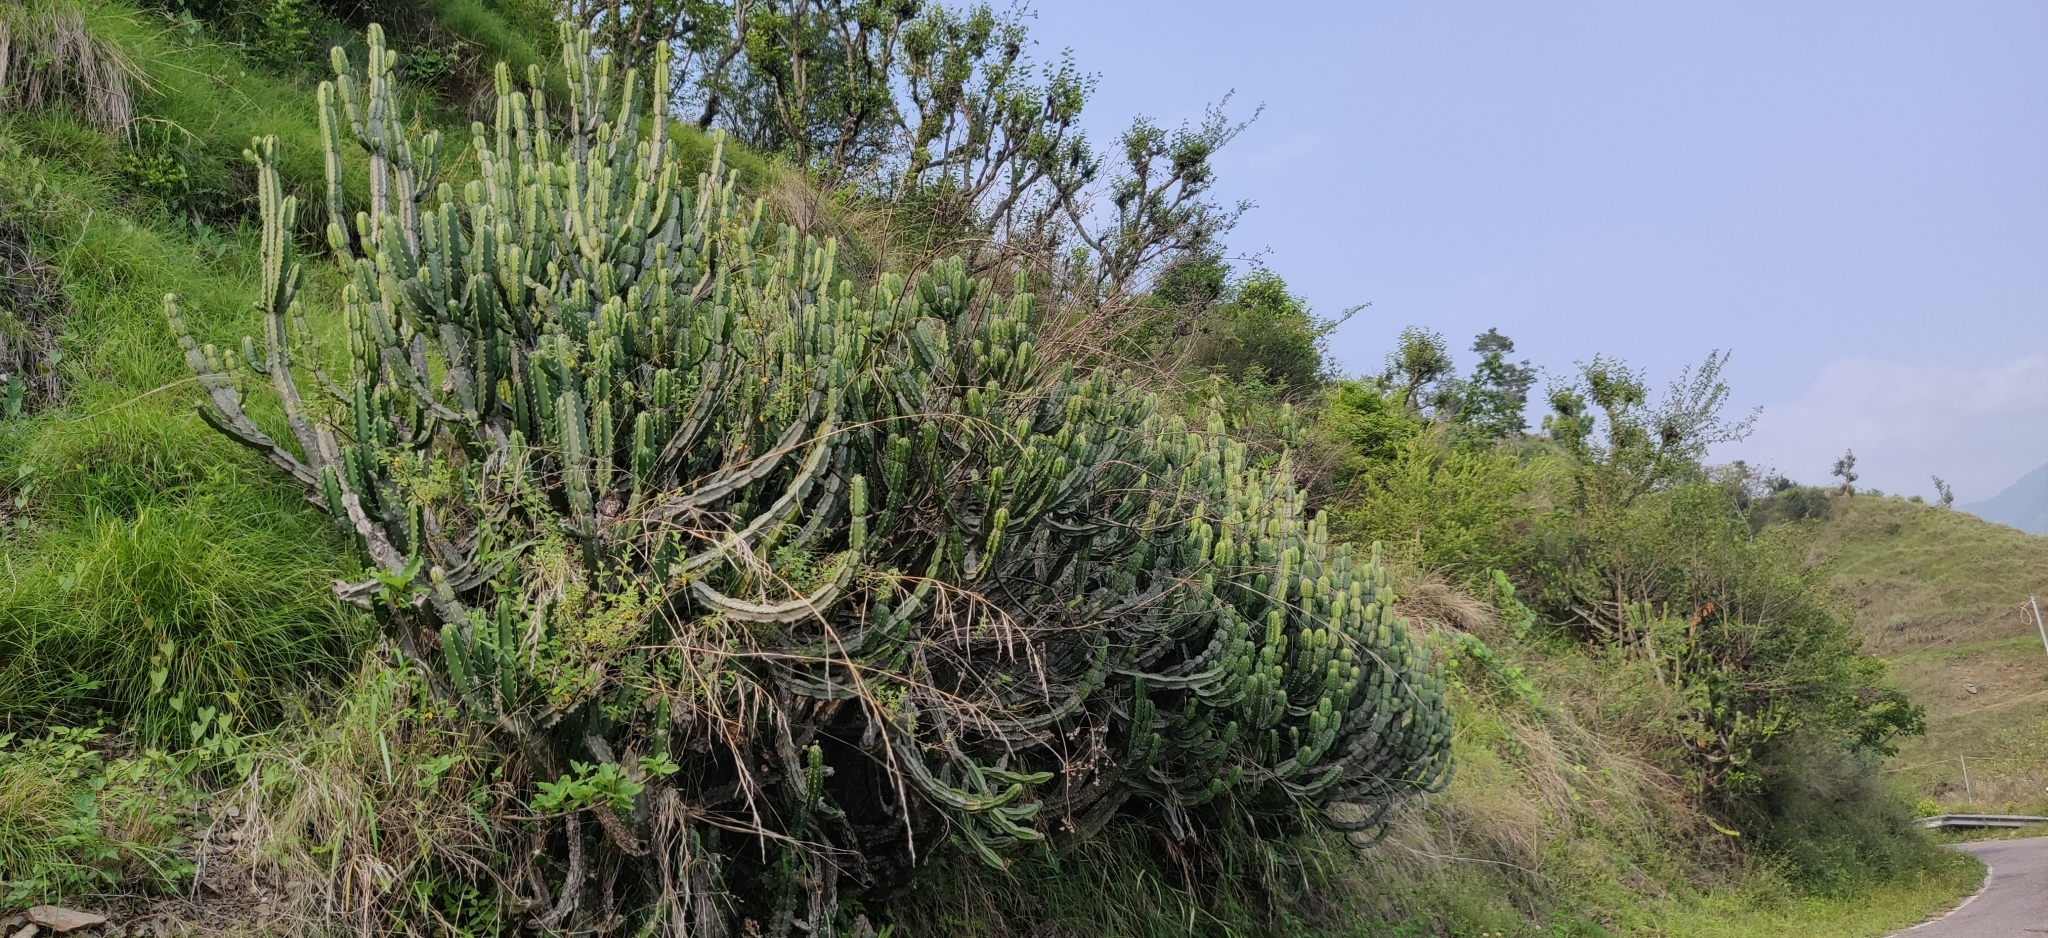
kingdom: Plantae
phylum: Tracheophyta
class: Magnoliopsida
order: Malpighiales
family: Euphorbiaceae
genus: Euphorbia
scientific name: Euphorbia royleana
